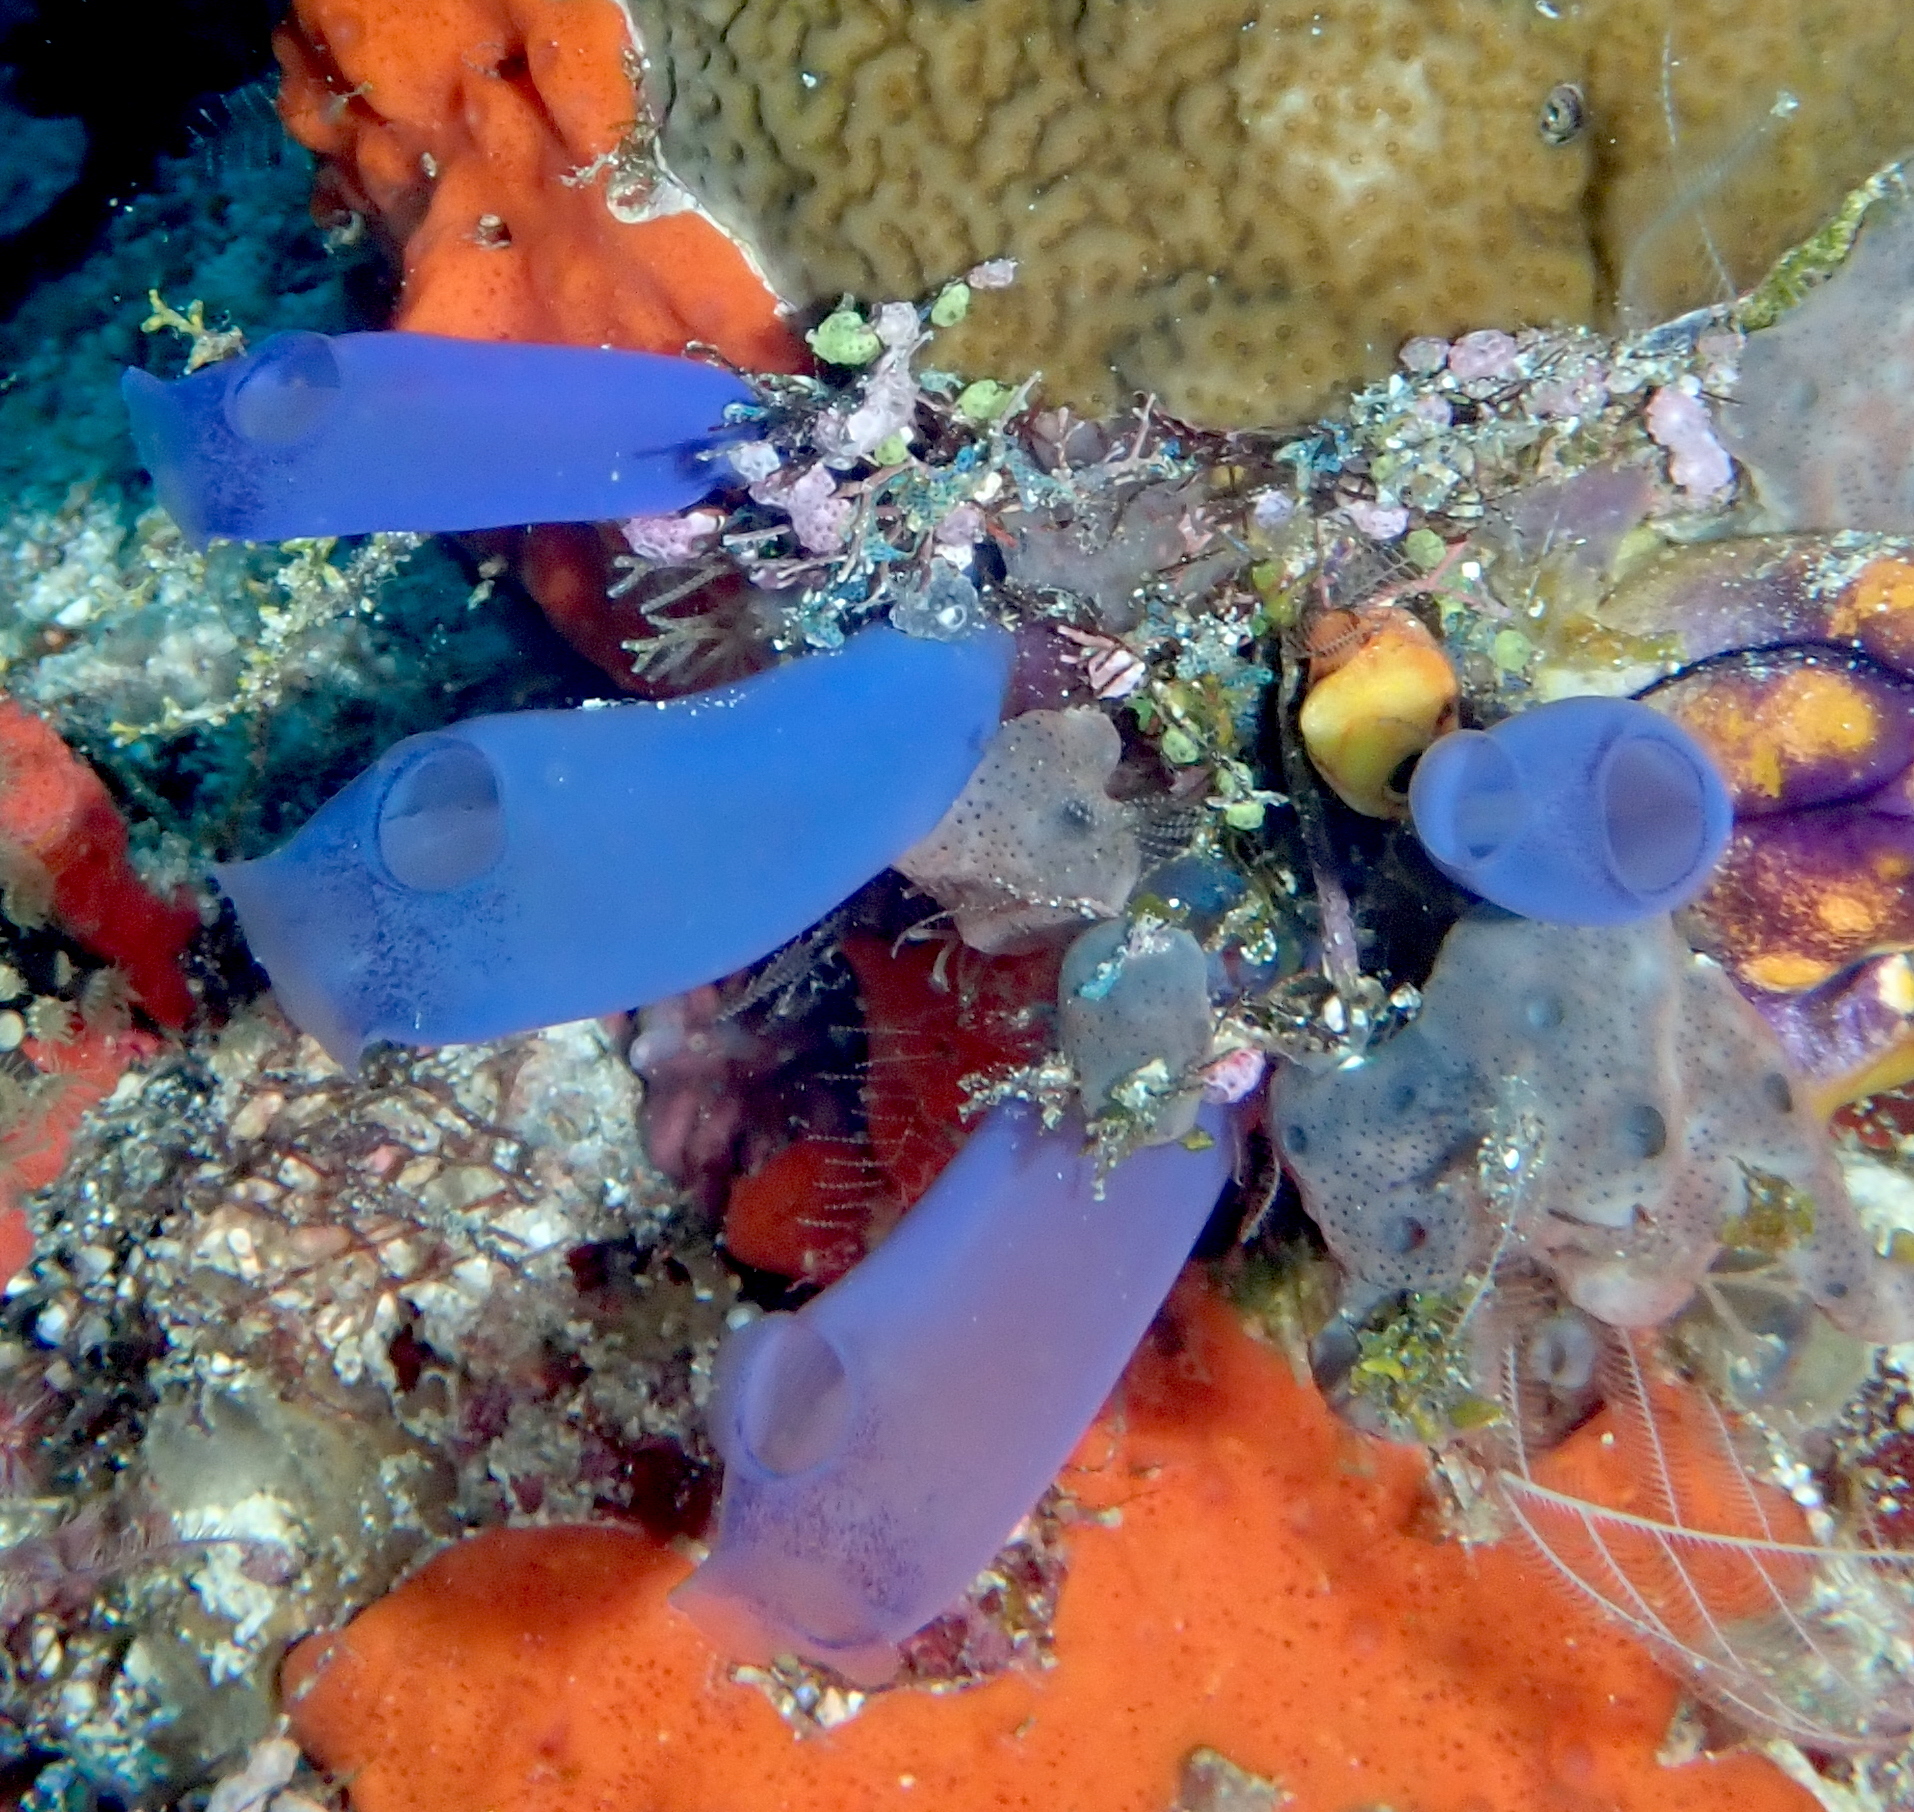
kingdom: Animalia
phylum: Chordata
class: Ascidiacea
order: Aplousobranchia
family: Diazonidae
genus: Rhopalaea
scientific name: Rhopalaea fusca
